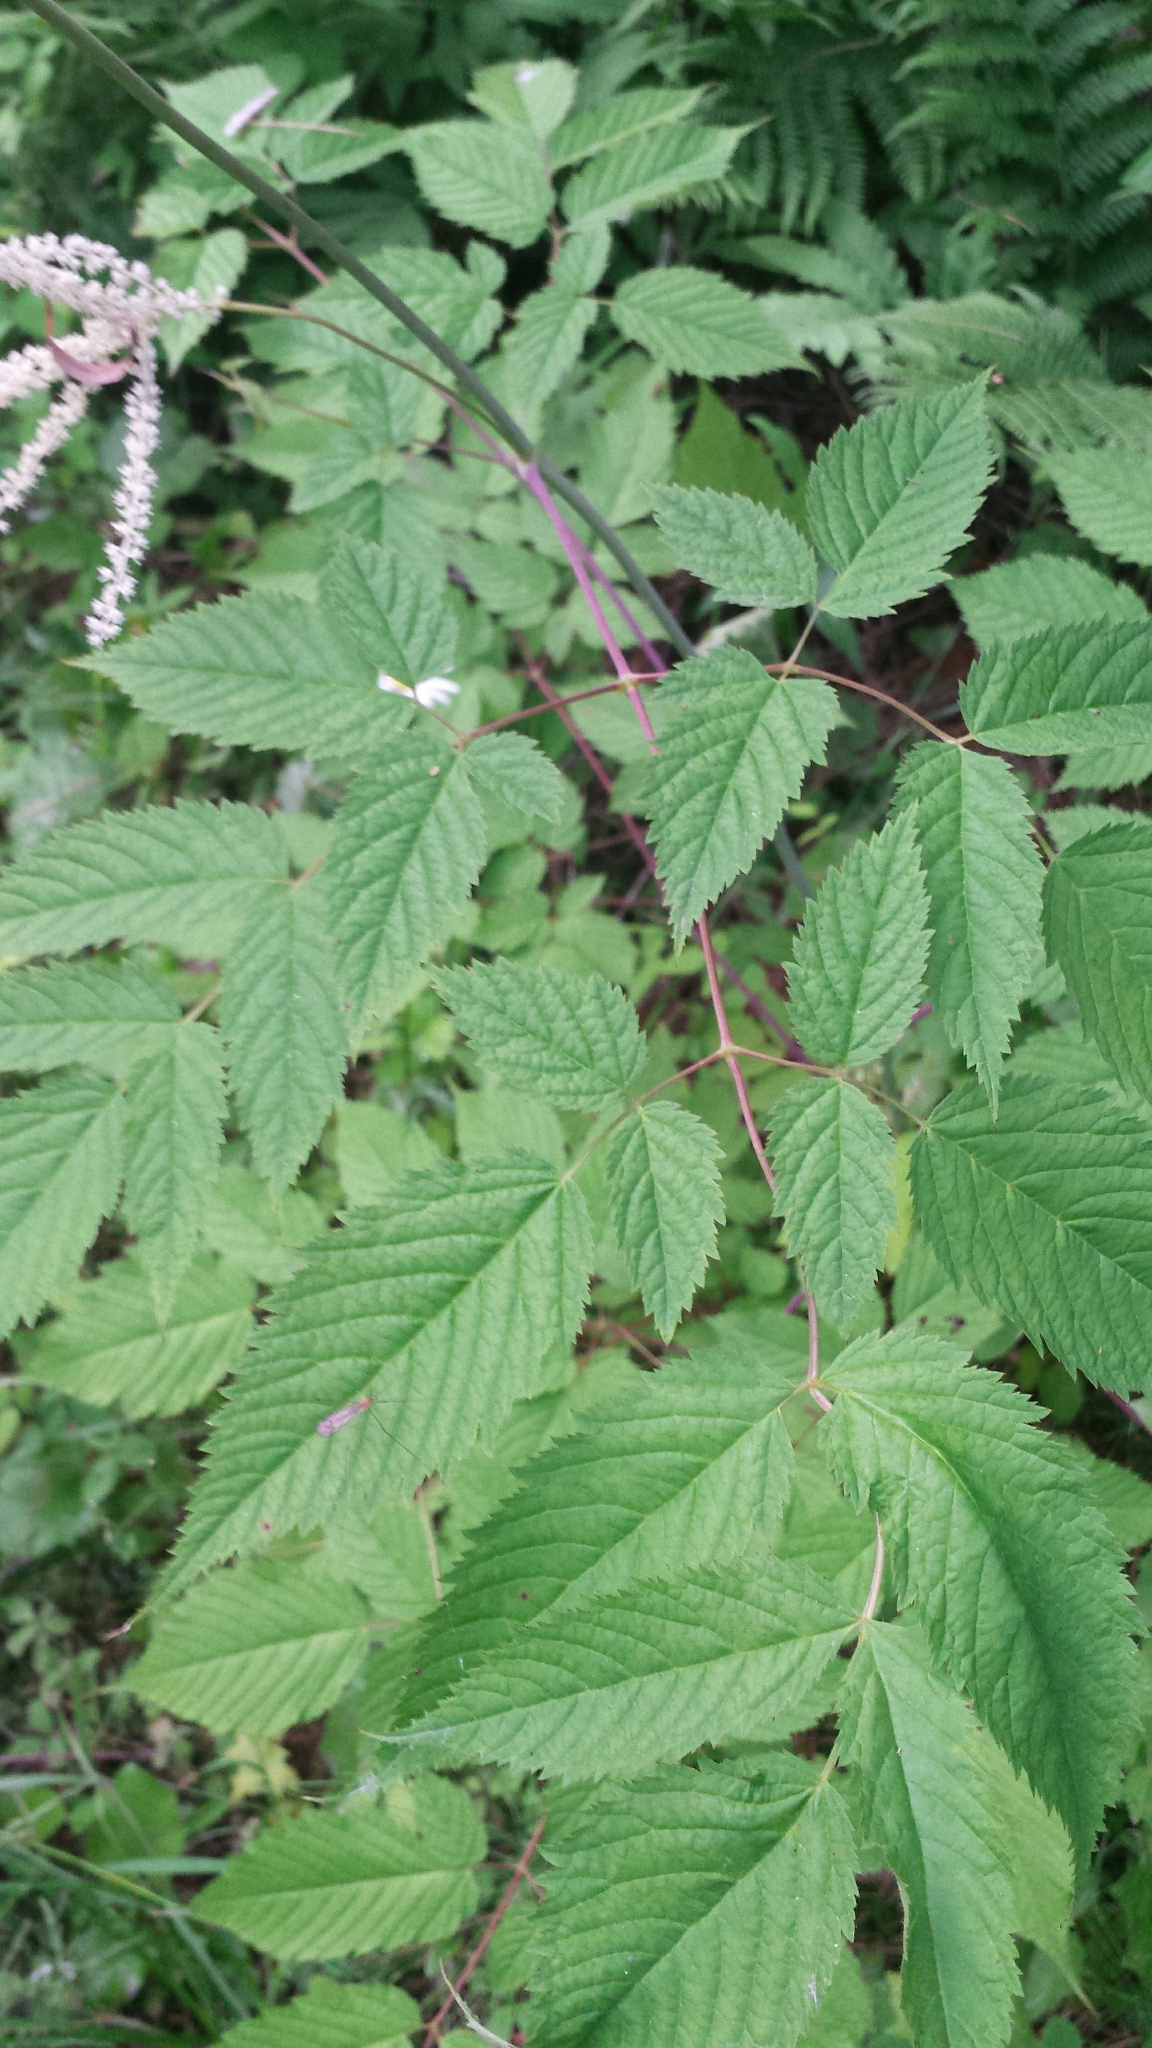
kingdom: Plantae
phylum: Tracheophyta
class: Magnoliopsida
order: Rosales
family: Rosaceae
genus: Aruncus
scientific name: Aruncus dioicus
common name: Buck's-beard
